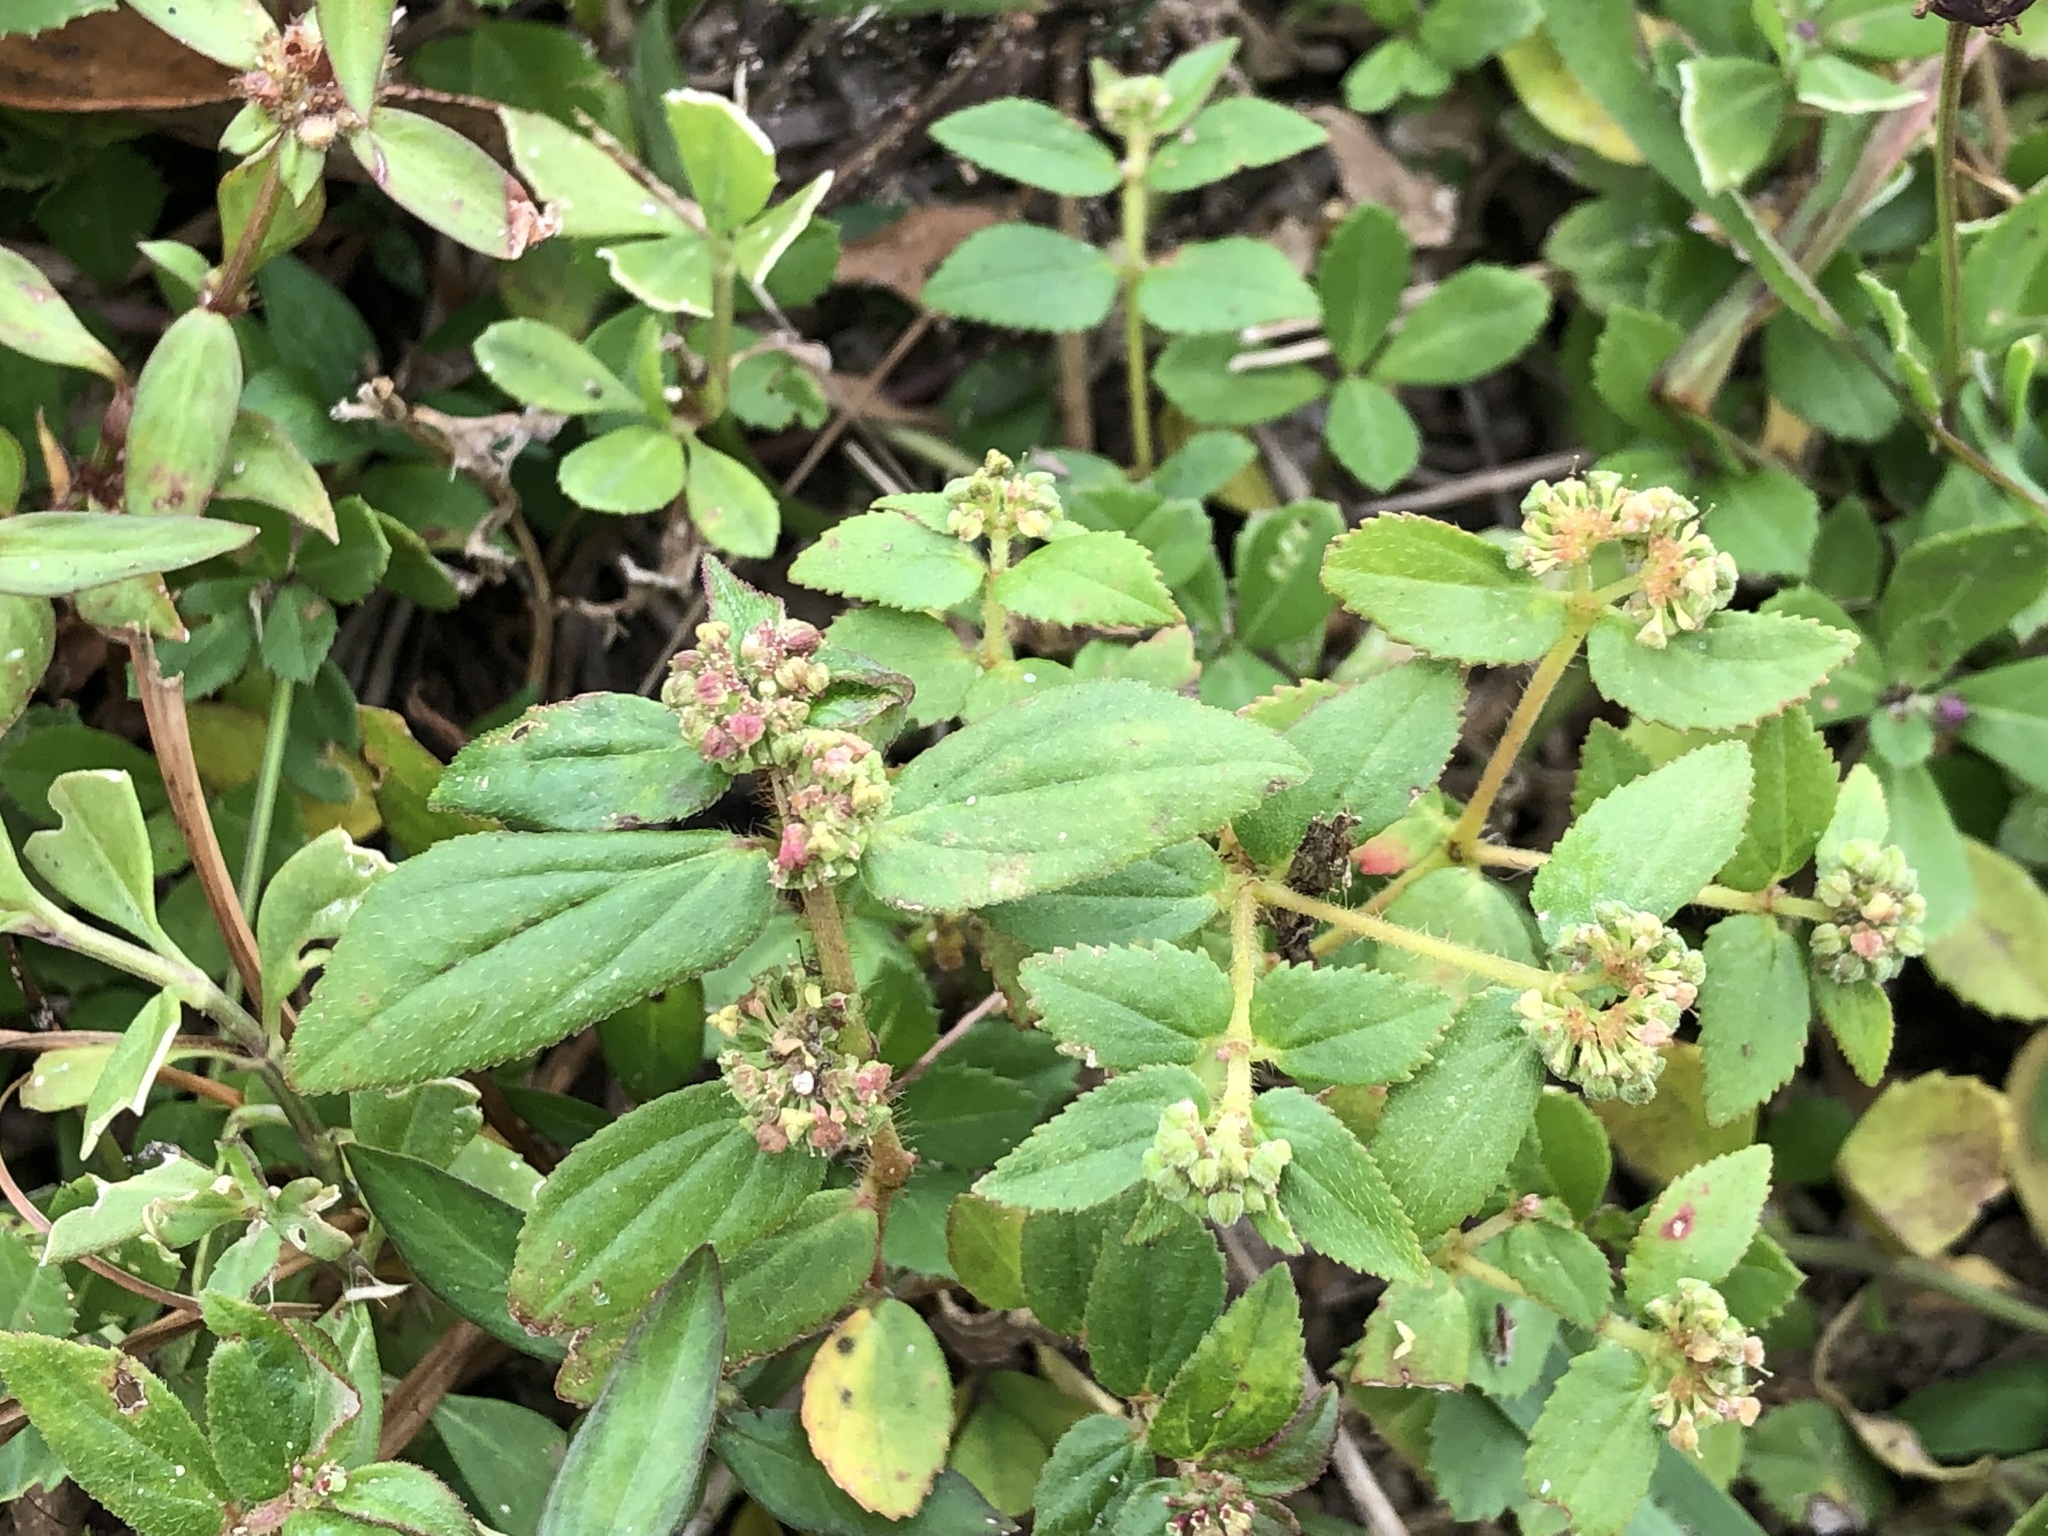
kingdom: Plantae
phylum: Tracheophyta
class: Magnoliopsida
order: Malpighiales
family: Euphorbiaceae
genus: Euphorbia
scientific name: Euphorbia ophthalmica
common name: Florida hammock sandmat
